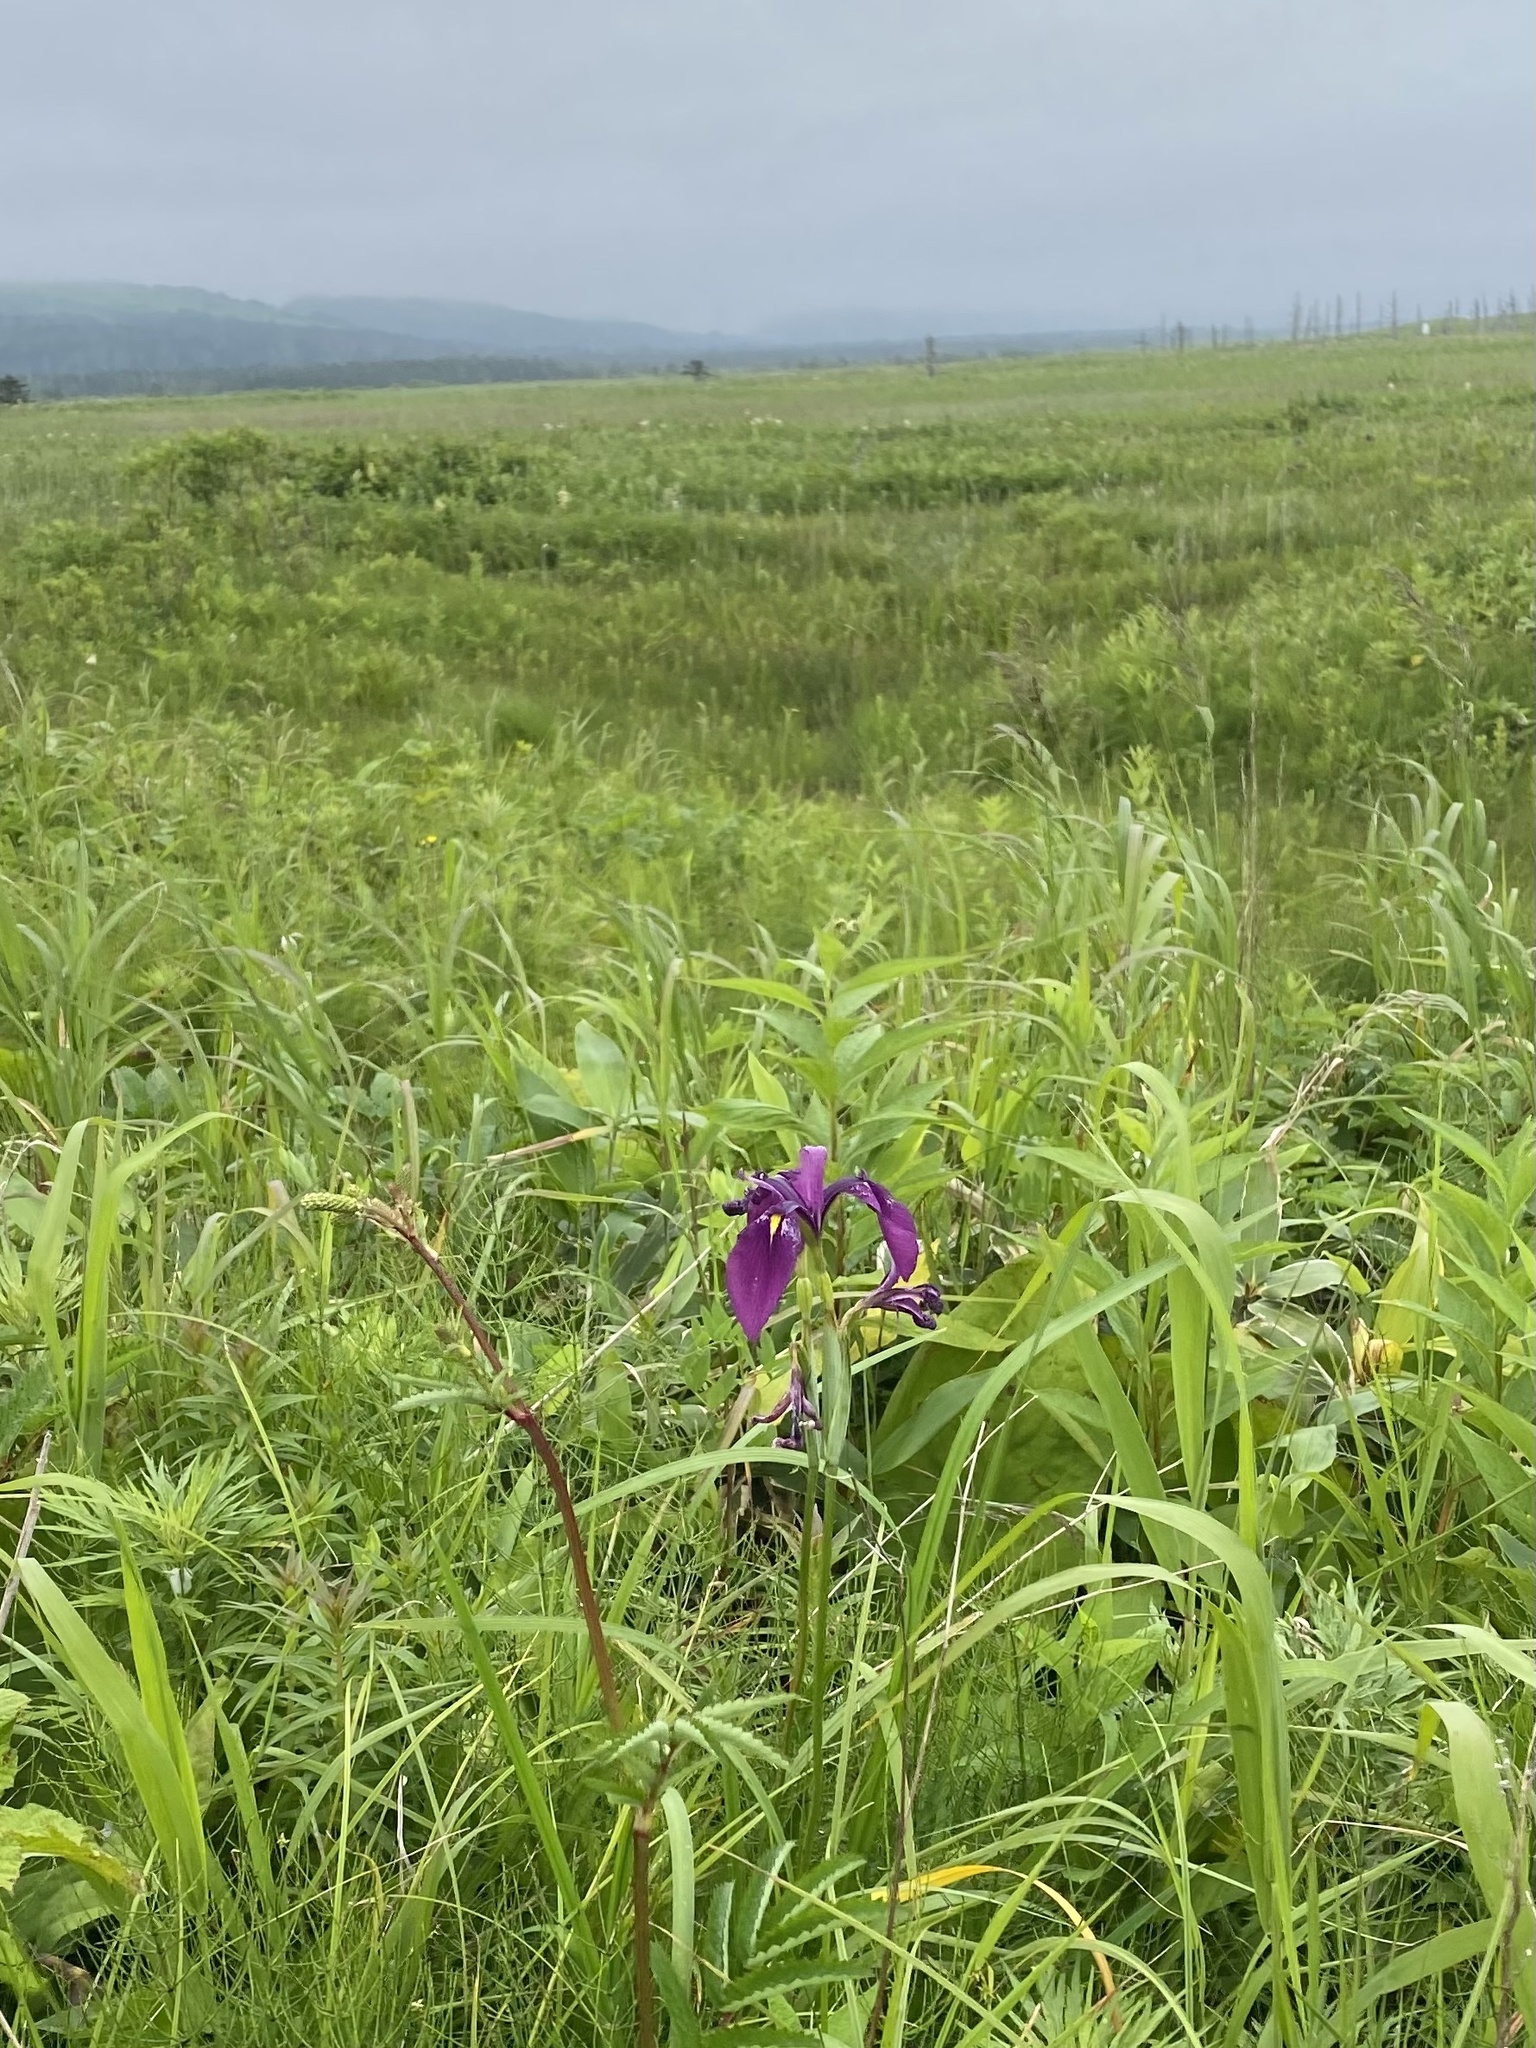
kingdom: Plantae
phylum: Tracheophyta
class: Liliopsida
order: Asparagales
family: Iridaceae
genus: Iris
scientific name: Iris ensata
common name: Beaked iris
